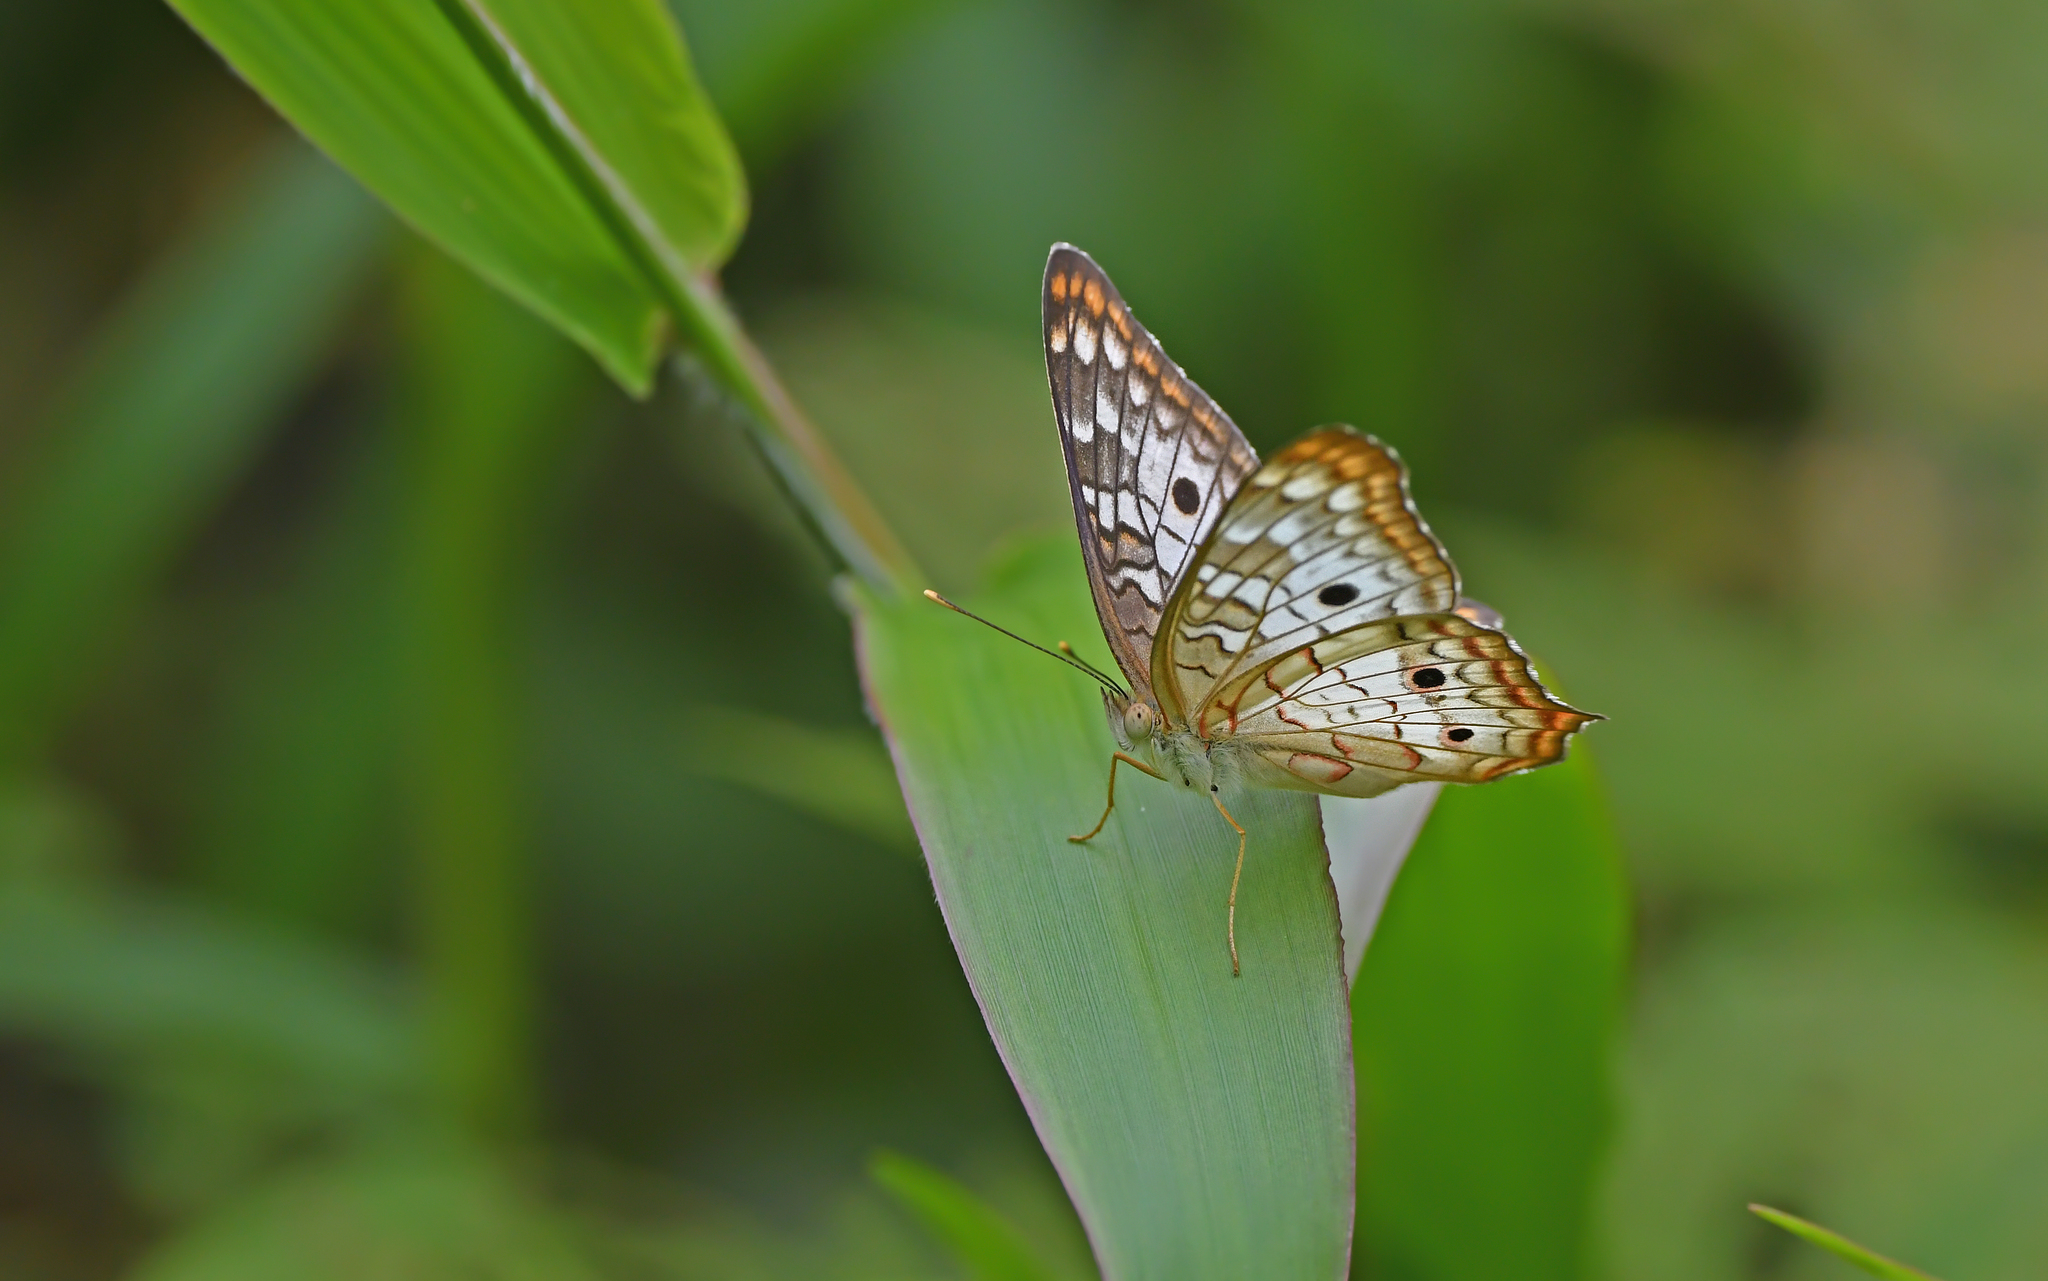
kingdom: Animalia
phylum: Arthropoda
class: Insecta
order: Lepidoptera
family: Nymphalidae
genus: Anartia
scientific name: Anartia jatrophae
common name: White peacock
